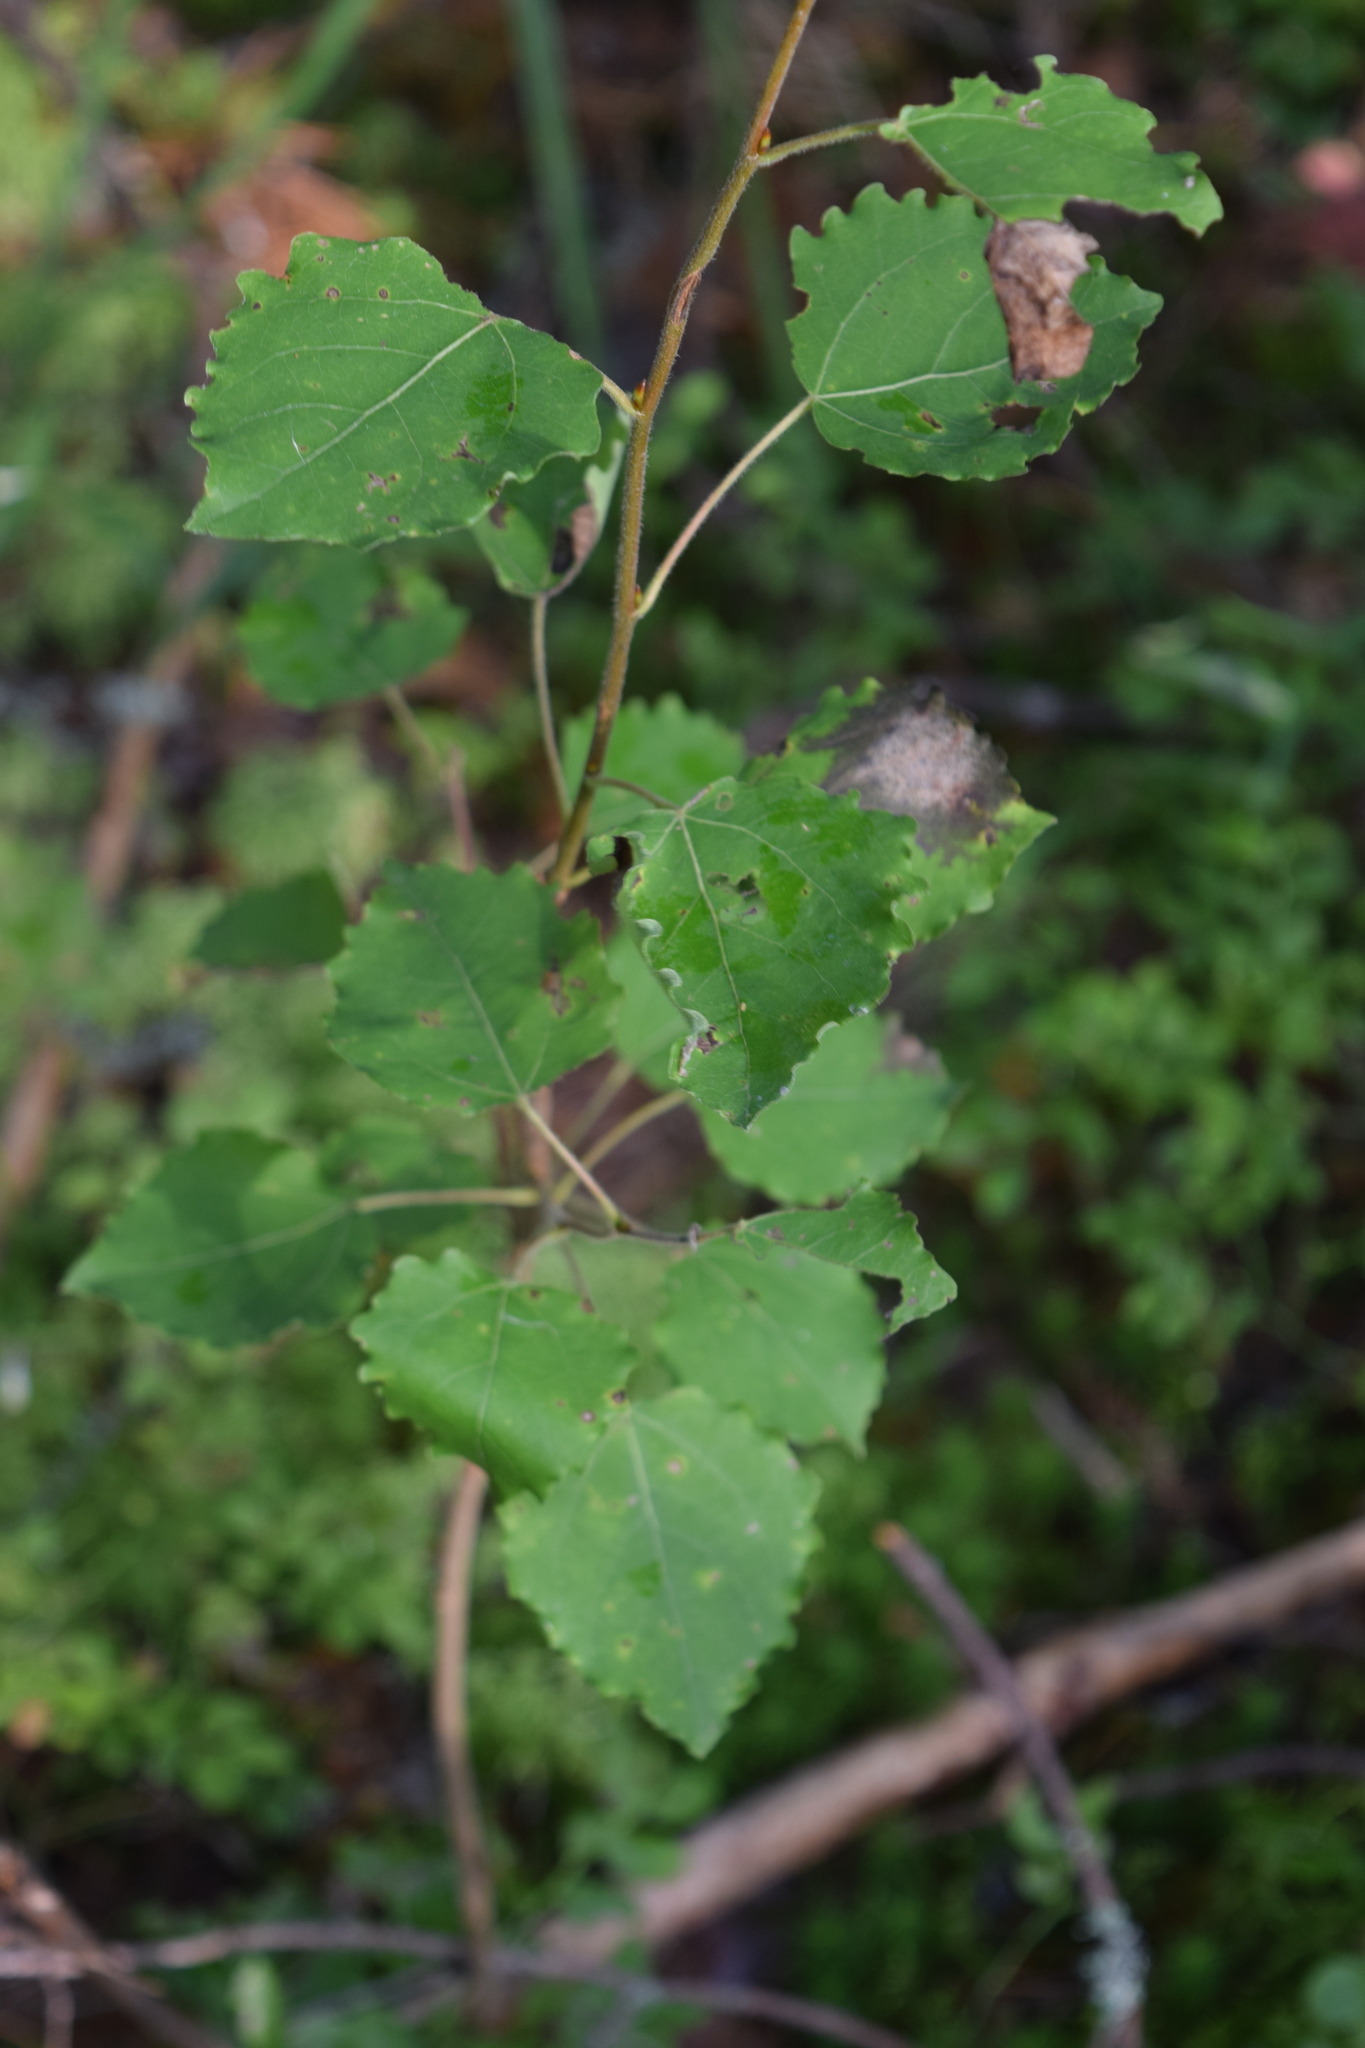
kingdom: Plantae
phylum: Tracheophyta
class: Magnoliopsida
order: Malpighiales
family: Salicaceae
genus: Populus
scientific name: Populus tremula
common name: European aspen
